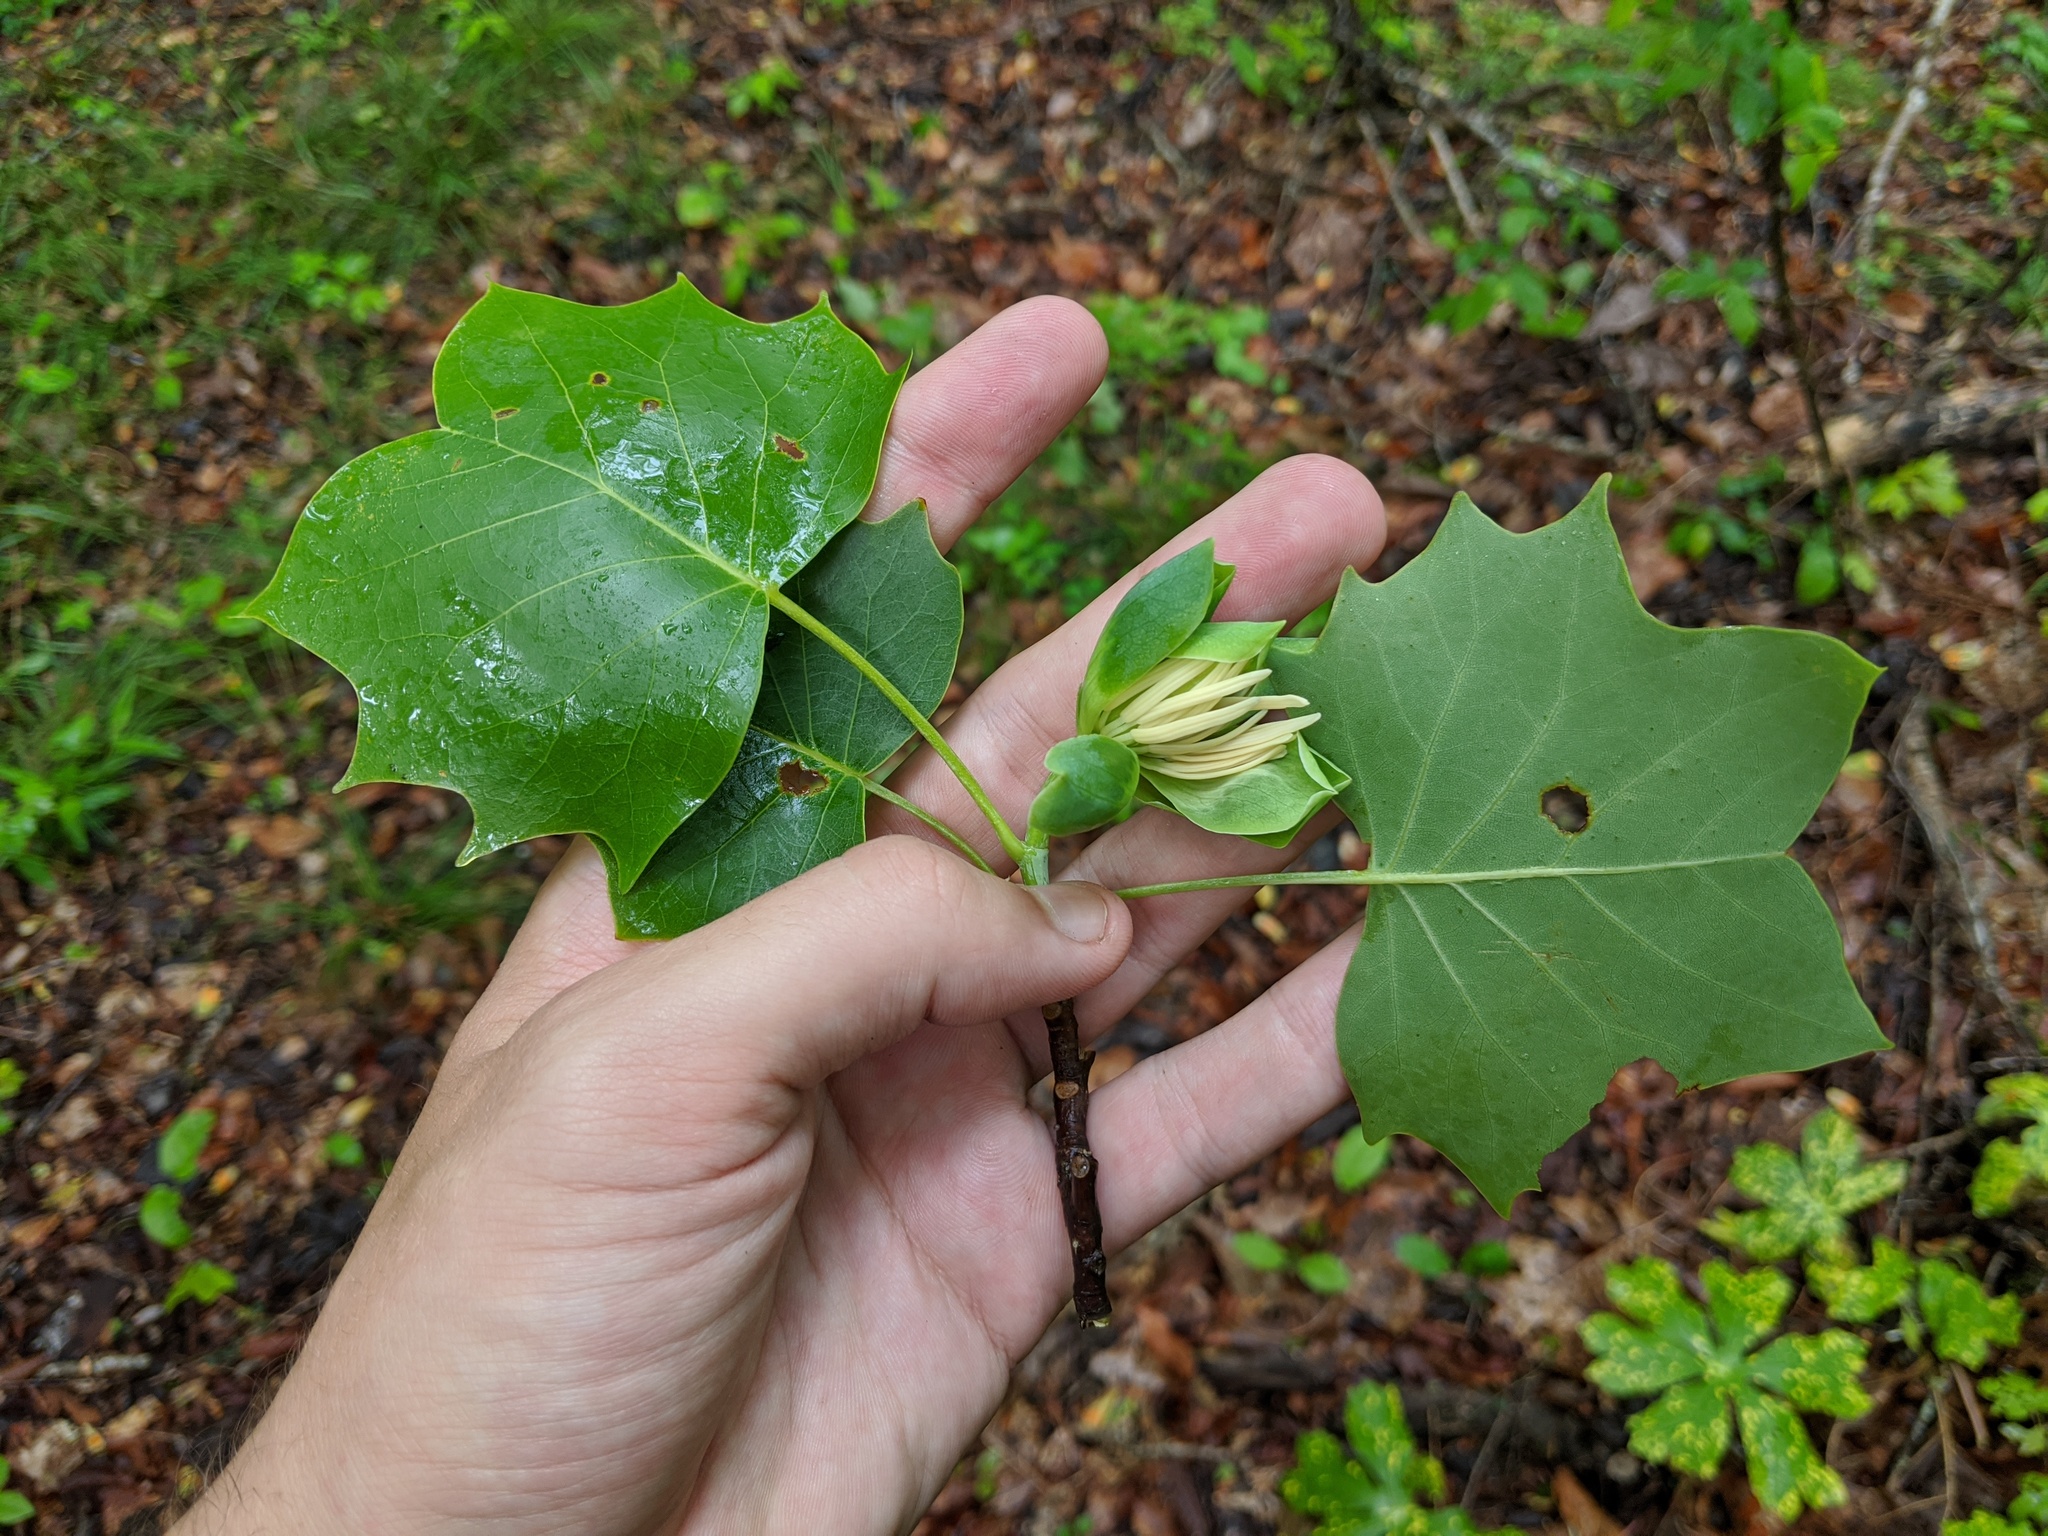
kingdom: Plantae
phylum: Tracheophyta
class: Magnoliopsida
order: Magnoliales
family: Magnoliaceae
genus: Liriodendron
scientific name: Liriodendron tulipifera
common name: Tulip tree
